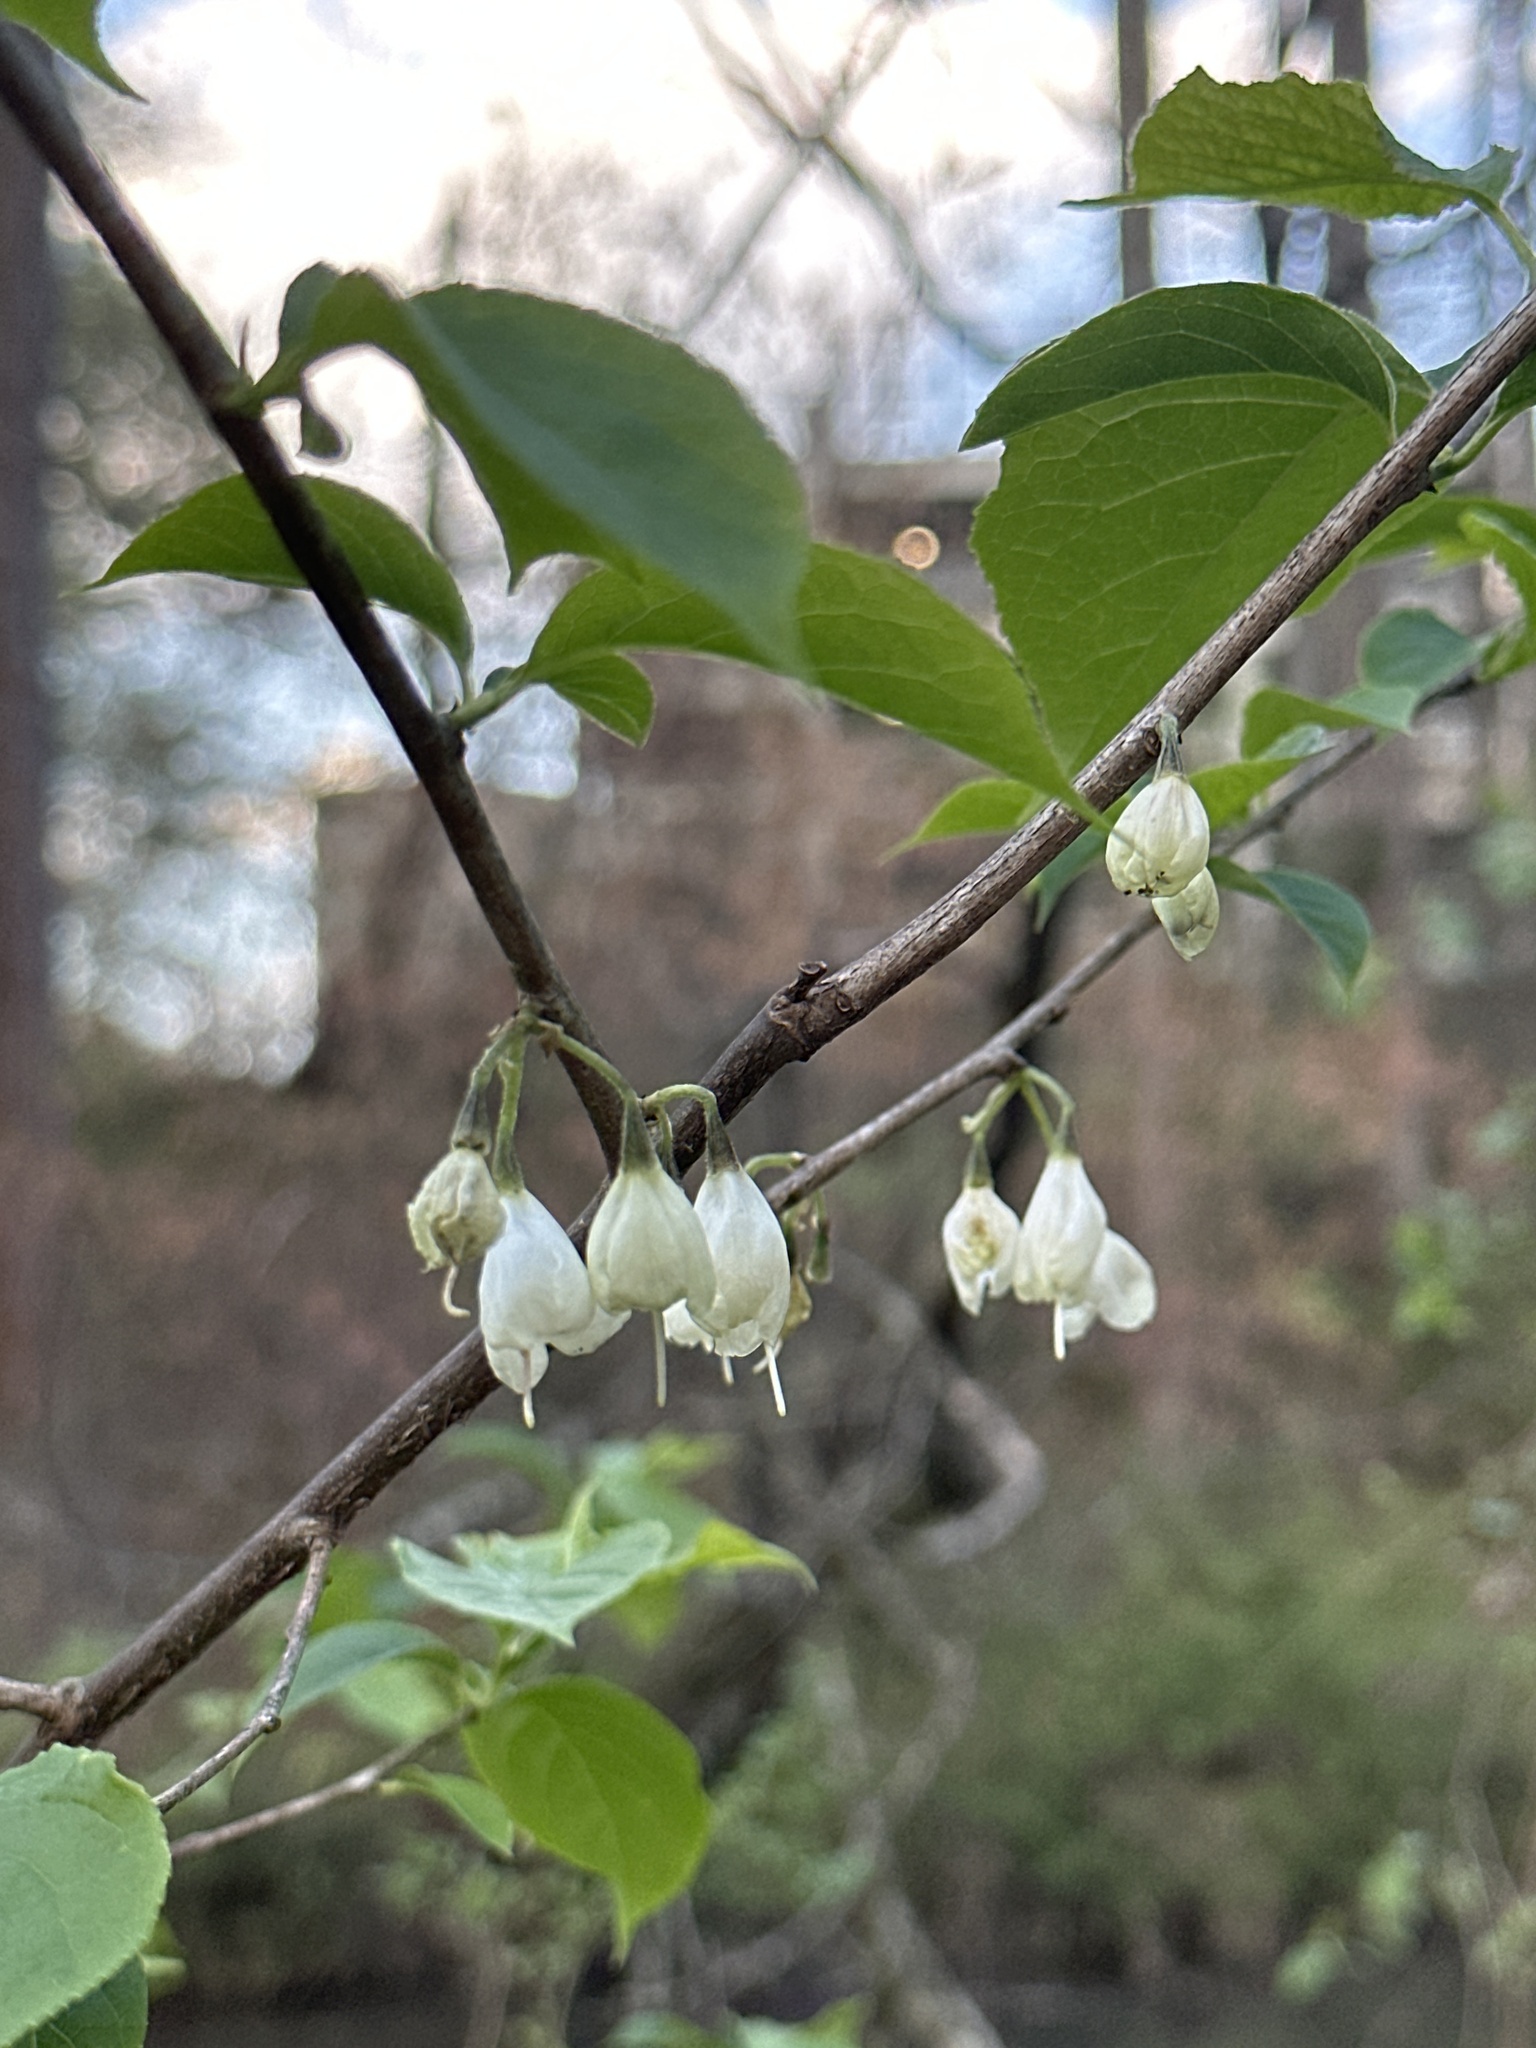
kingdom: Plantae
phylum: Tracheophyta
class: Magnoliopsida
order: Ericales
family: Styracaceae
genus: Halesia
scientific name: Halesia carolina
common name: Carolina silverbell
